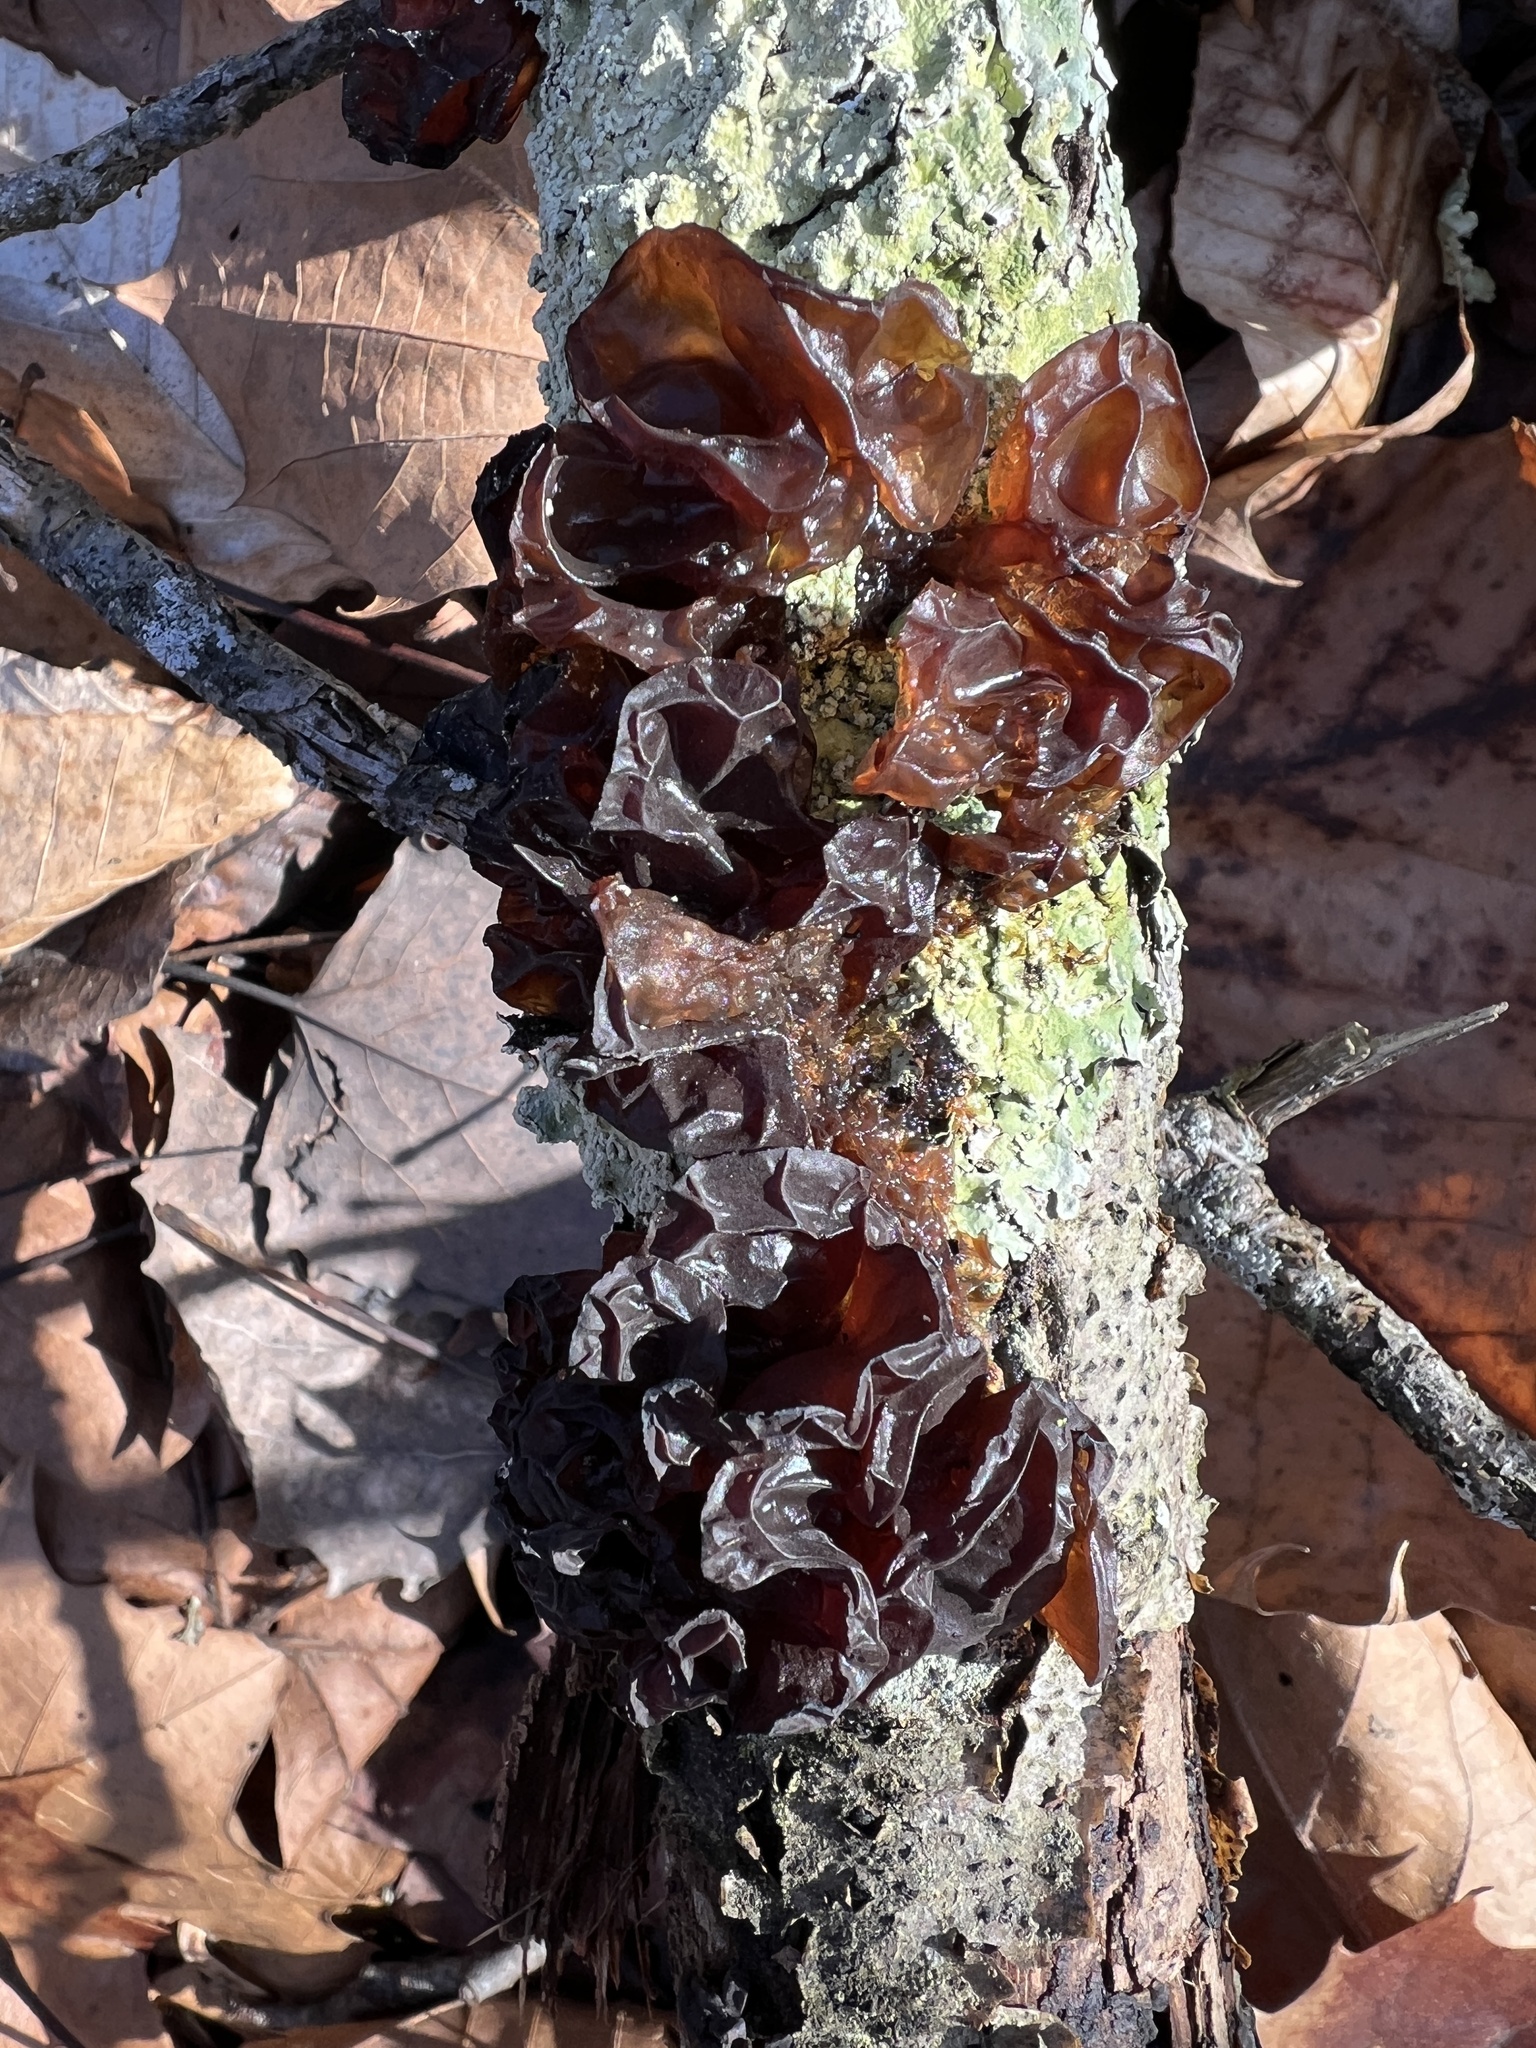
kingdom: Fungi
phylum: Basidiomycota
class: Agaricomycetes
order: Auriculariales
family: Auriculariaceae
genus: Exidia
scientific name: Exidia
